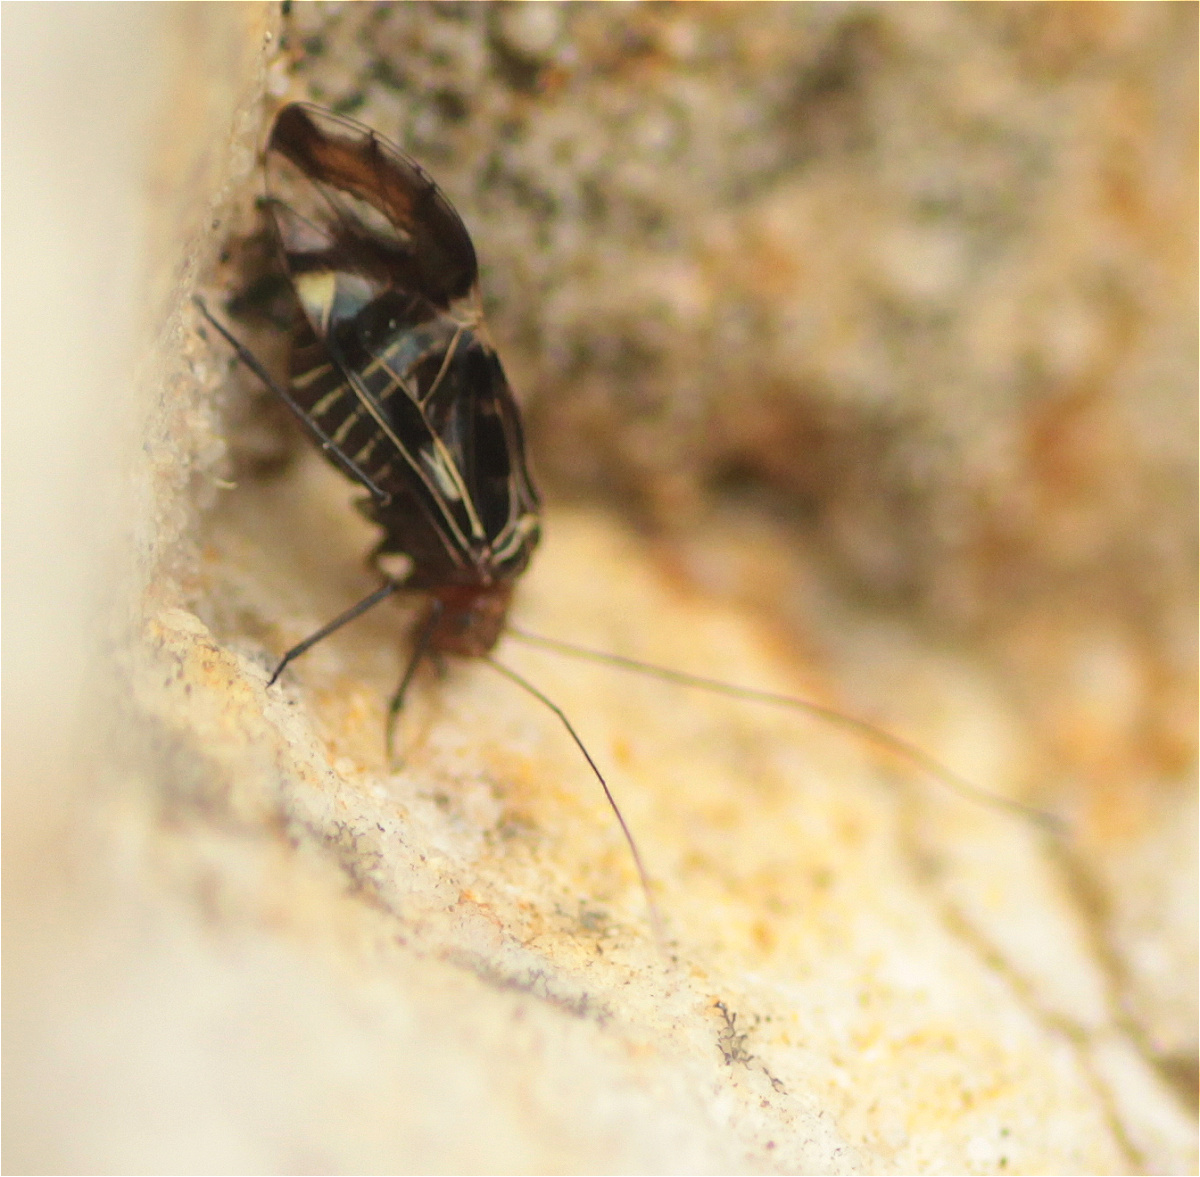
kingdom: Animalia
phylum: Arthropoda
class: Insecta
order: Psocodea
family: Psocidae
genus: Cerastipsocus
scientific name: Cerastipsocus trifasciatus
